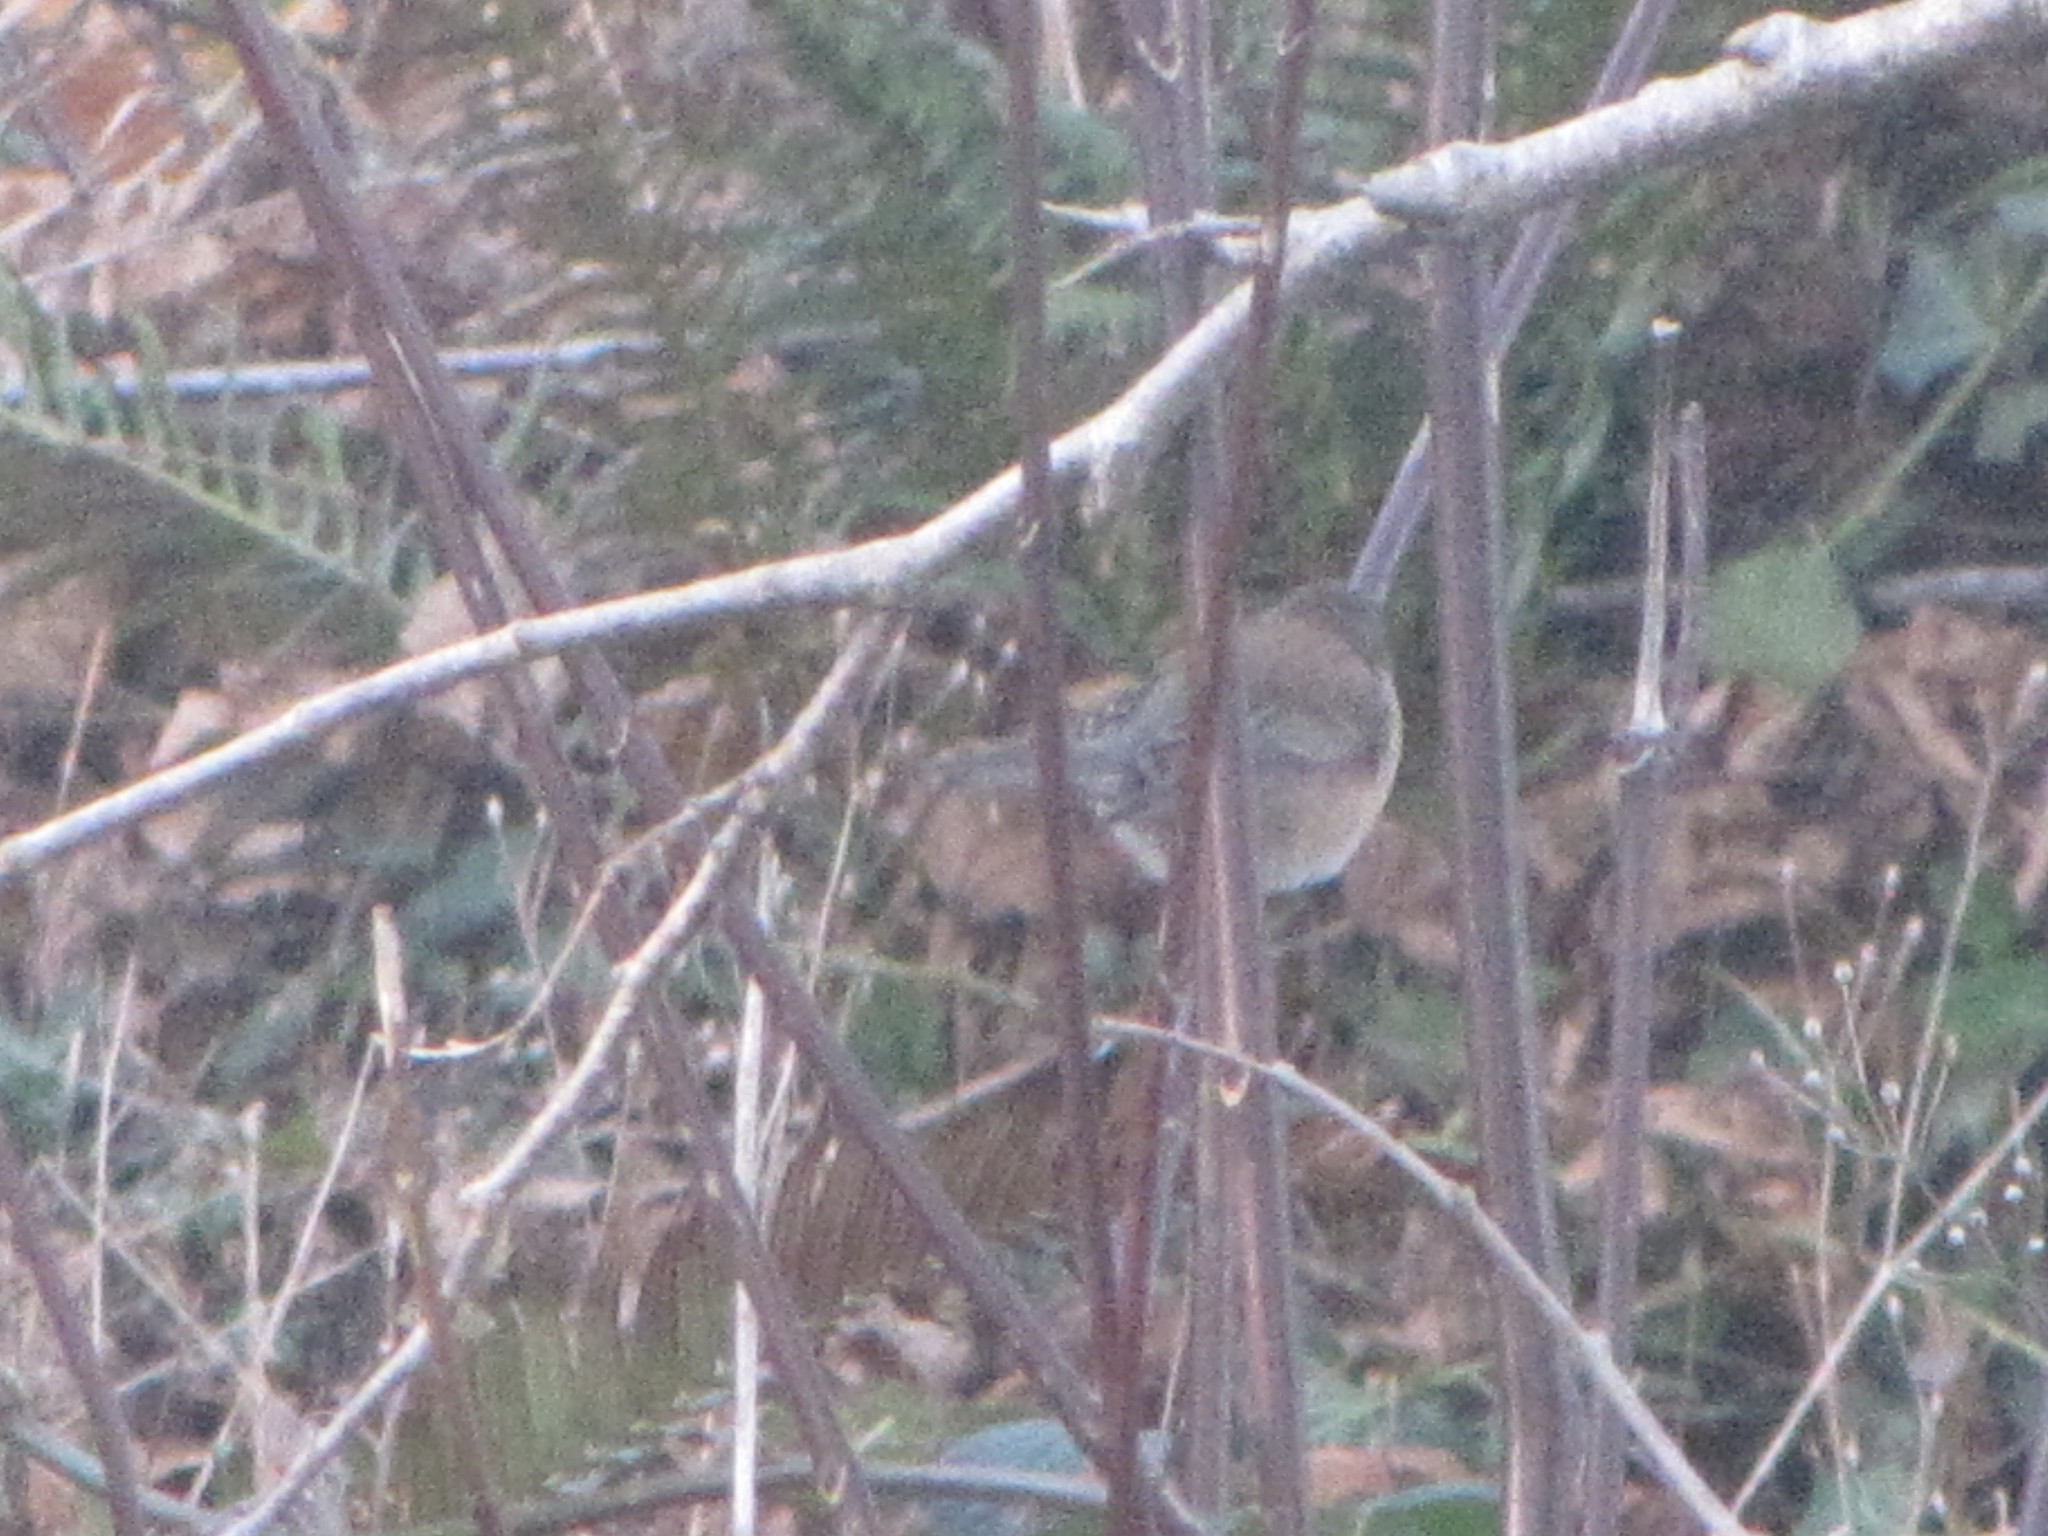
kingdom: Animalia
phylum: Chordata
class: Aves
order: Passeriformes
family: Passerellidae
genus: Junco
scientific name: Junco hyemalis
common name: Dark-eyed junco
